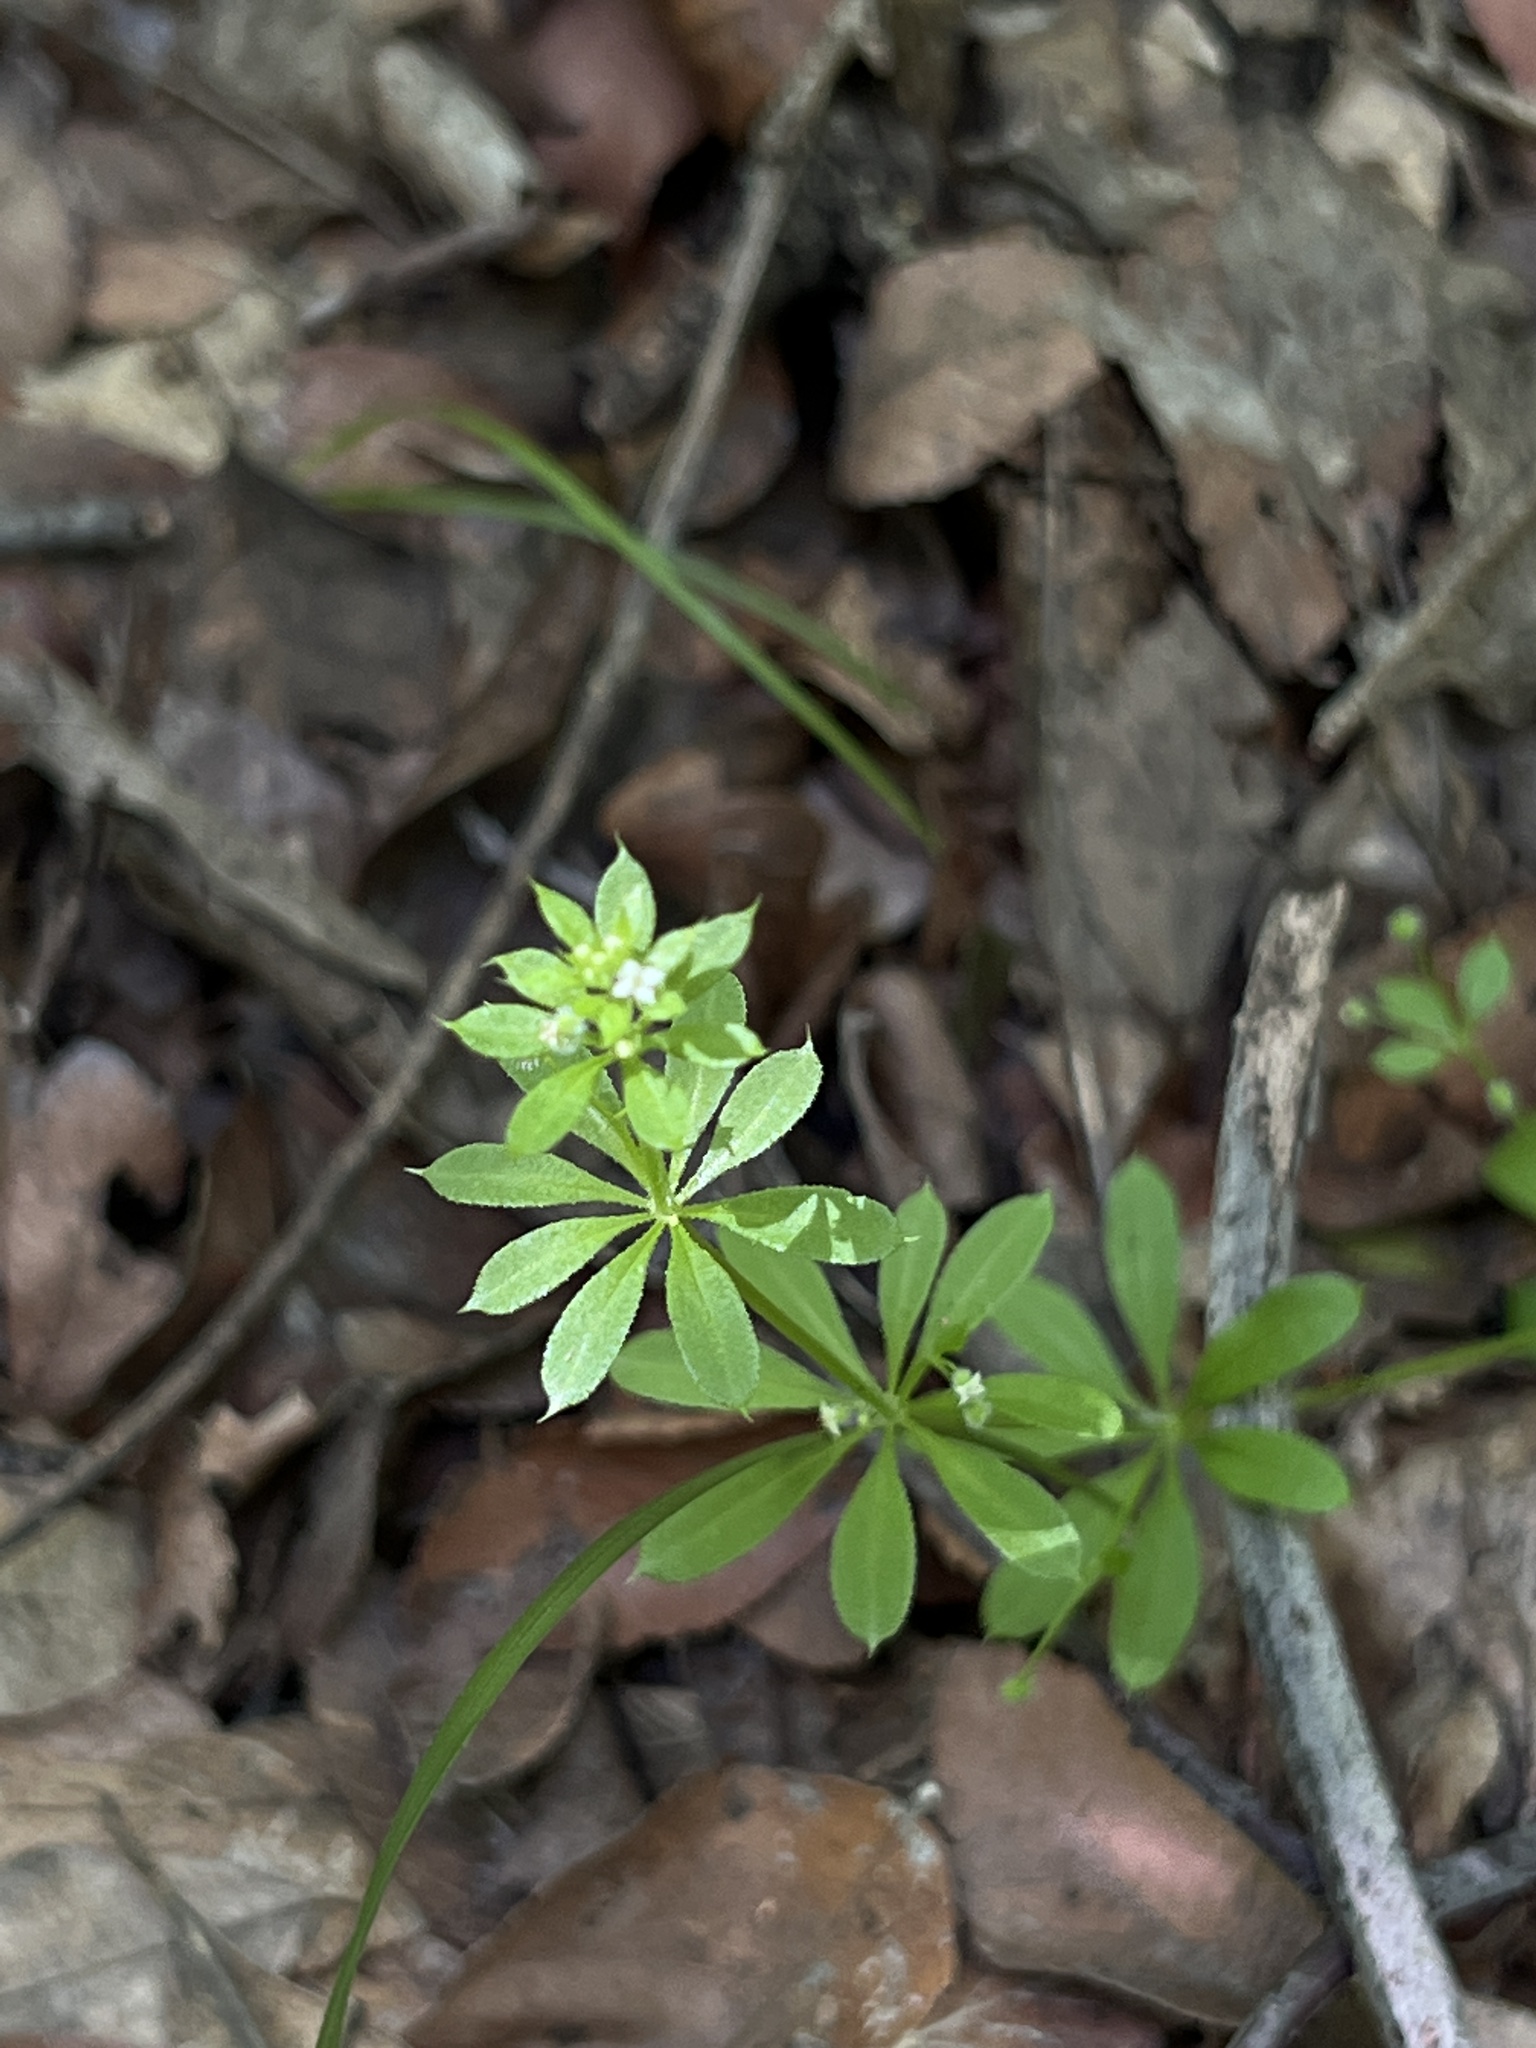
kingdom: Plantae
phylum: Tracheophyta
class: Magnoliopsida
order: Gentianales
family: Rubiaceae
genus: Galium
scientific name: Galium aparine
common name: Cleavers
